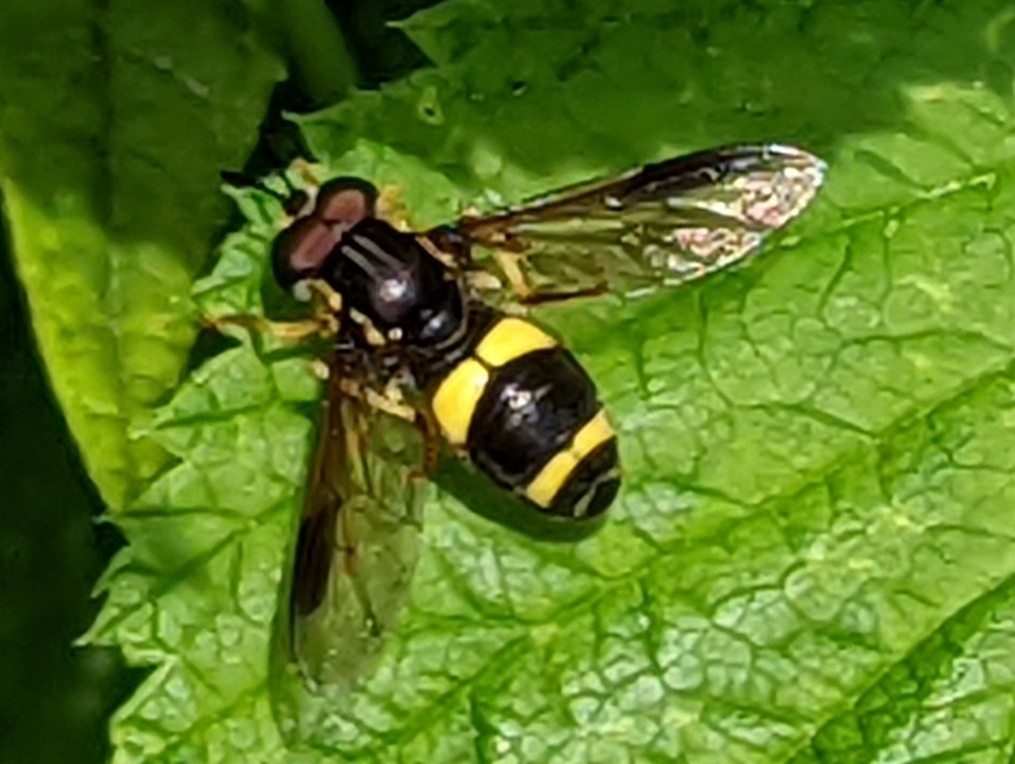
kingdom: Animalia
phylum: Arthropoda
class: Insecta
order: Diptera
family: Syrphidae
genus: Chrysotoxum
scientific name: Chrysotoxum bicincta
